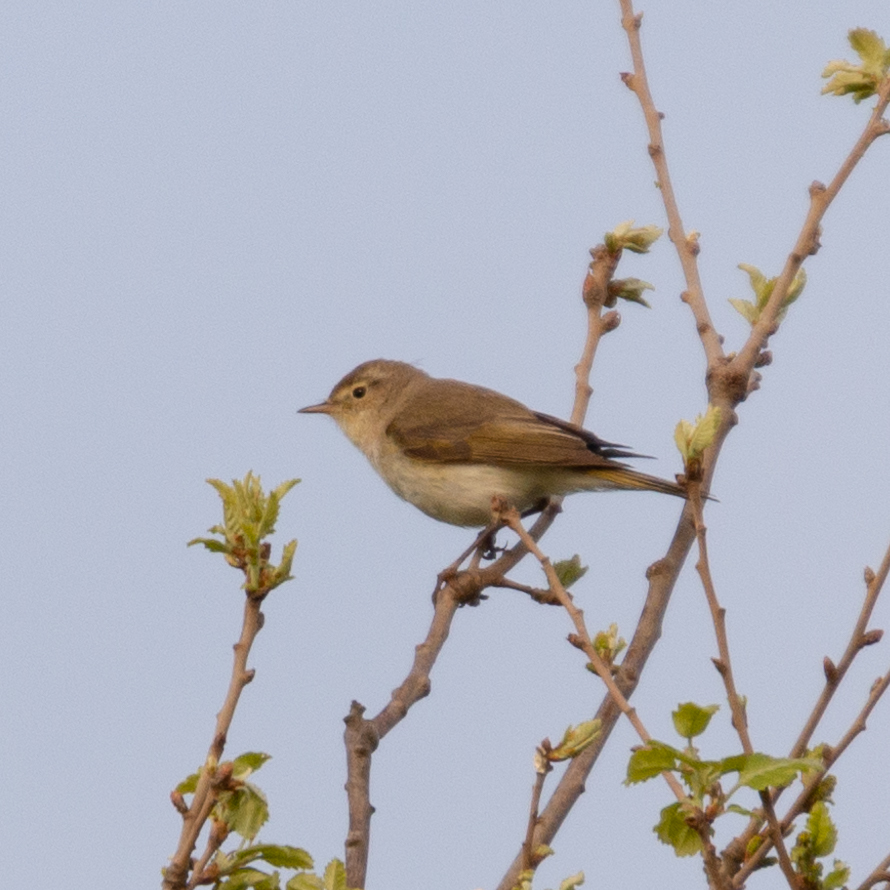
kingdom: Animalia
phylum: Chordata
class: Aves
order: Passeriformes
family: Phylloscopidae
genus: Phylloscopus
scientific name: Phylloscopus bonelli
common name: Western bonelli's warbler
